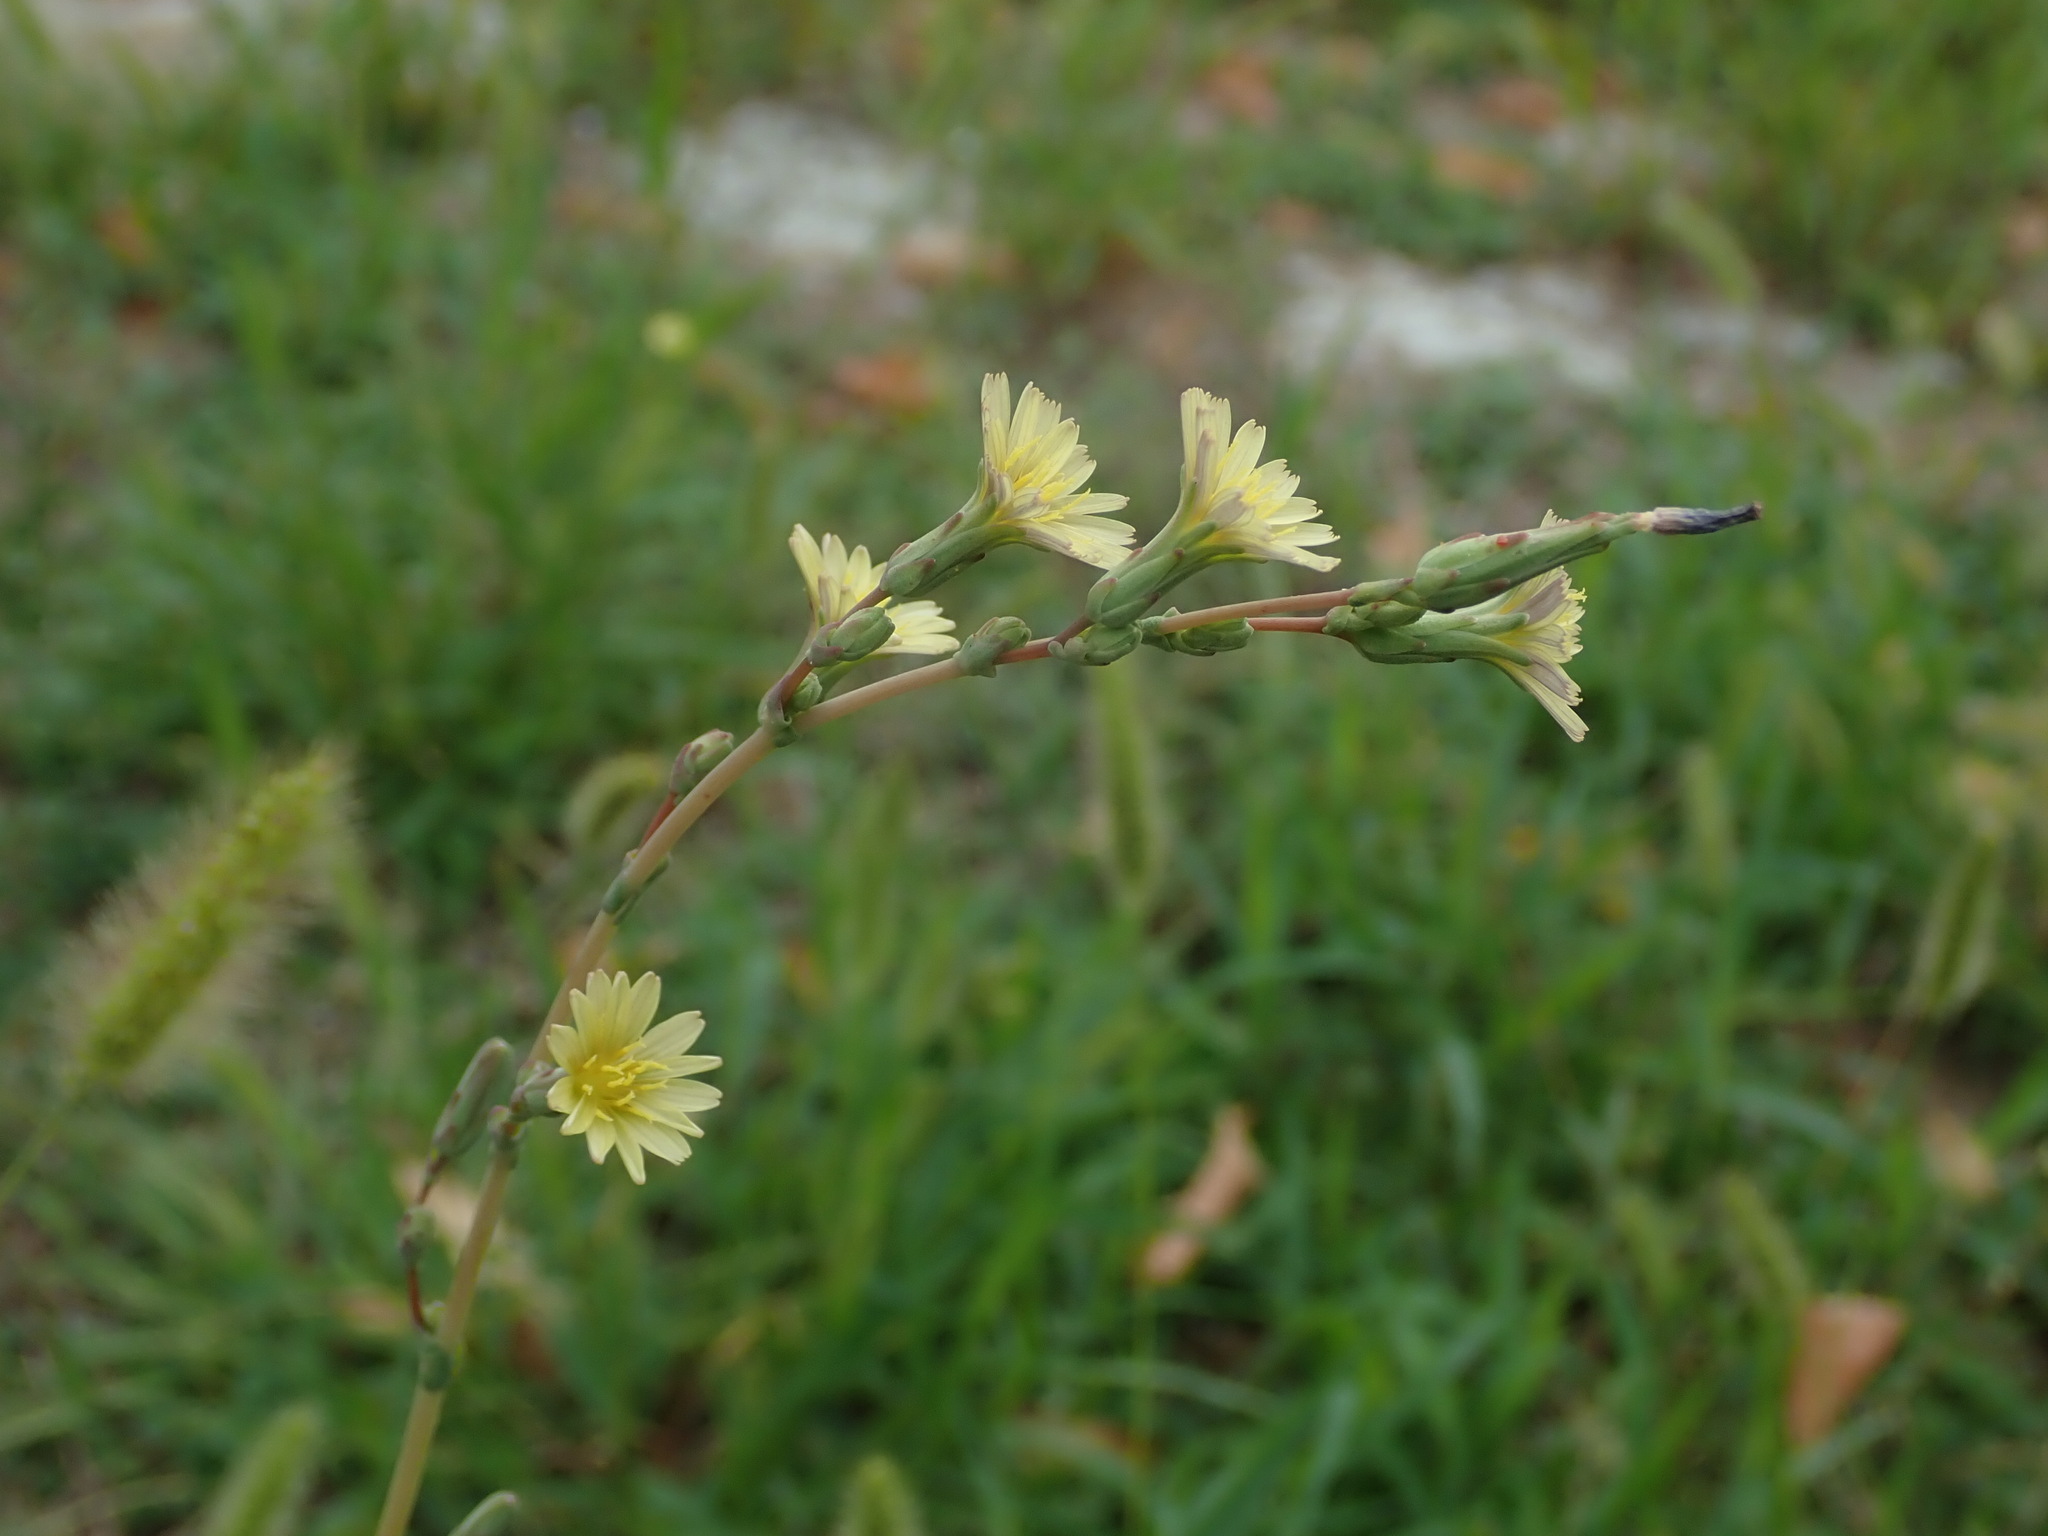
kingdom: Plantae
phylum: Tracheophyta
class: Magnoliopsida
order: Asterales
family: Asteraceae
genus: Lactuca
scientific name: Lactuca serriola
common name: Prickly lettuce
